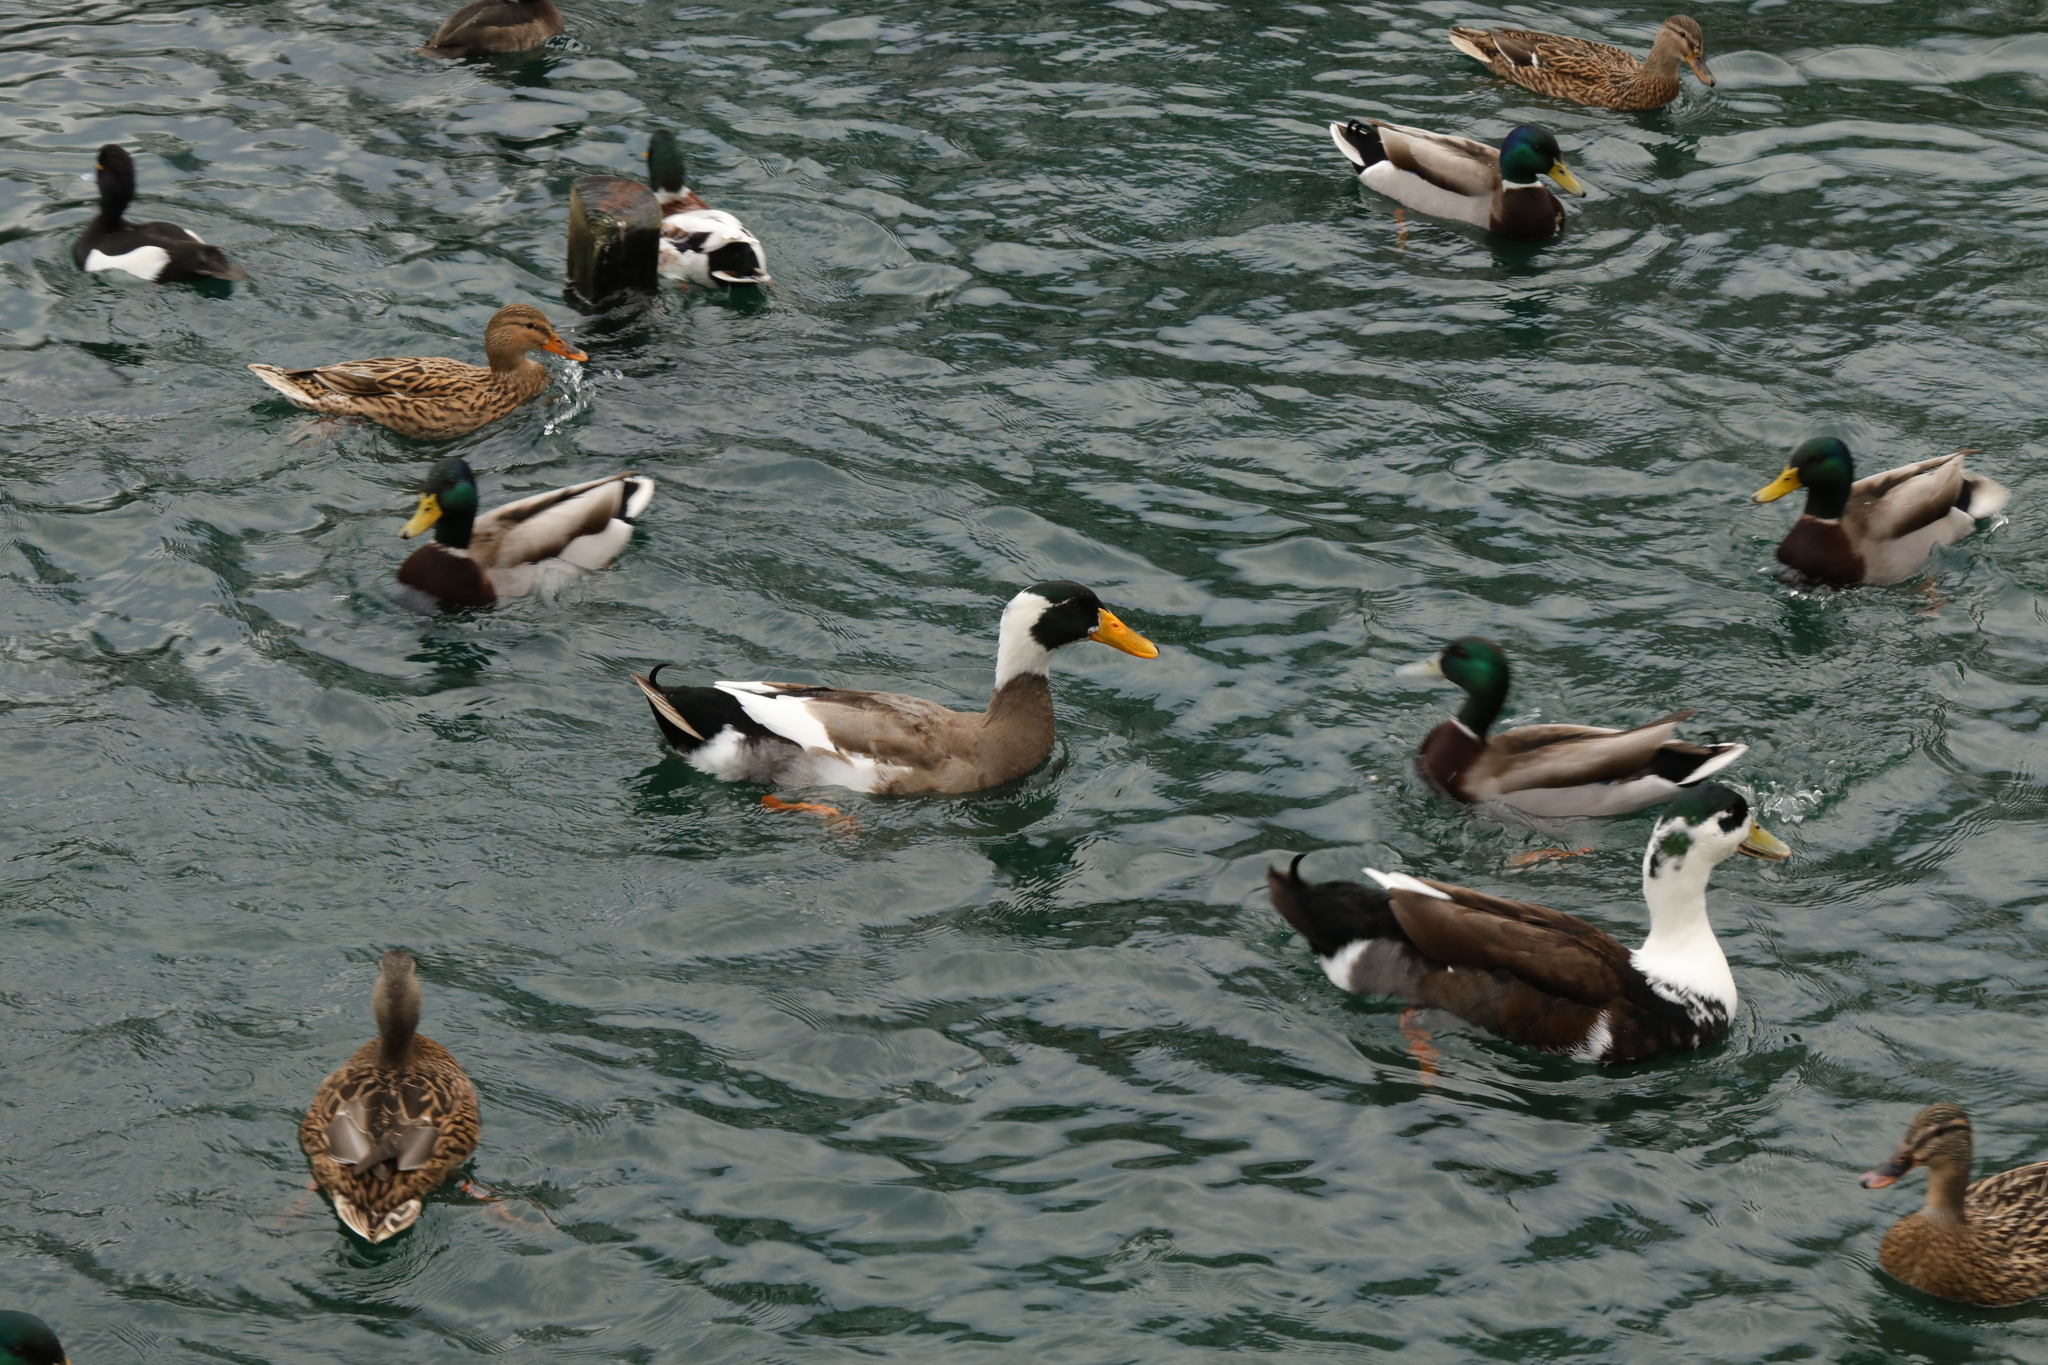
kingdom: Animalia
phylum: Chordata
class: Aves
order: Anseriformes
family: Anatidae
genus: Anas
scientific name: Anas platyrhynchos
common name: Mallard
